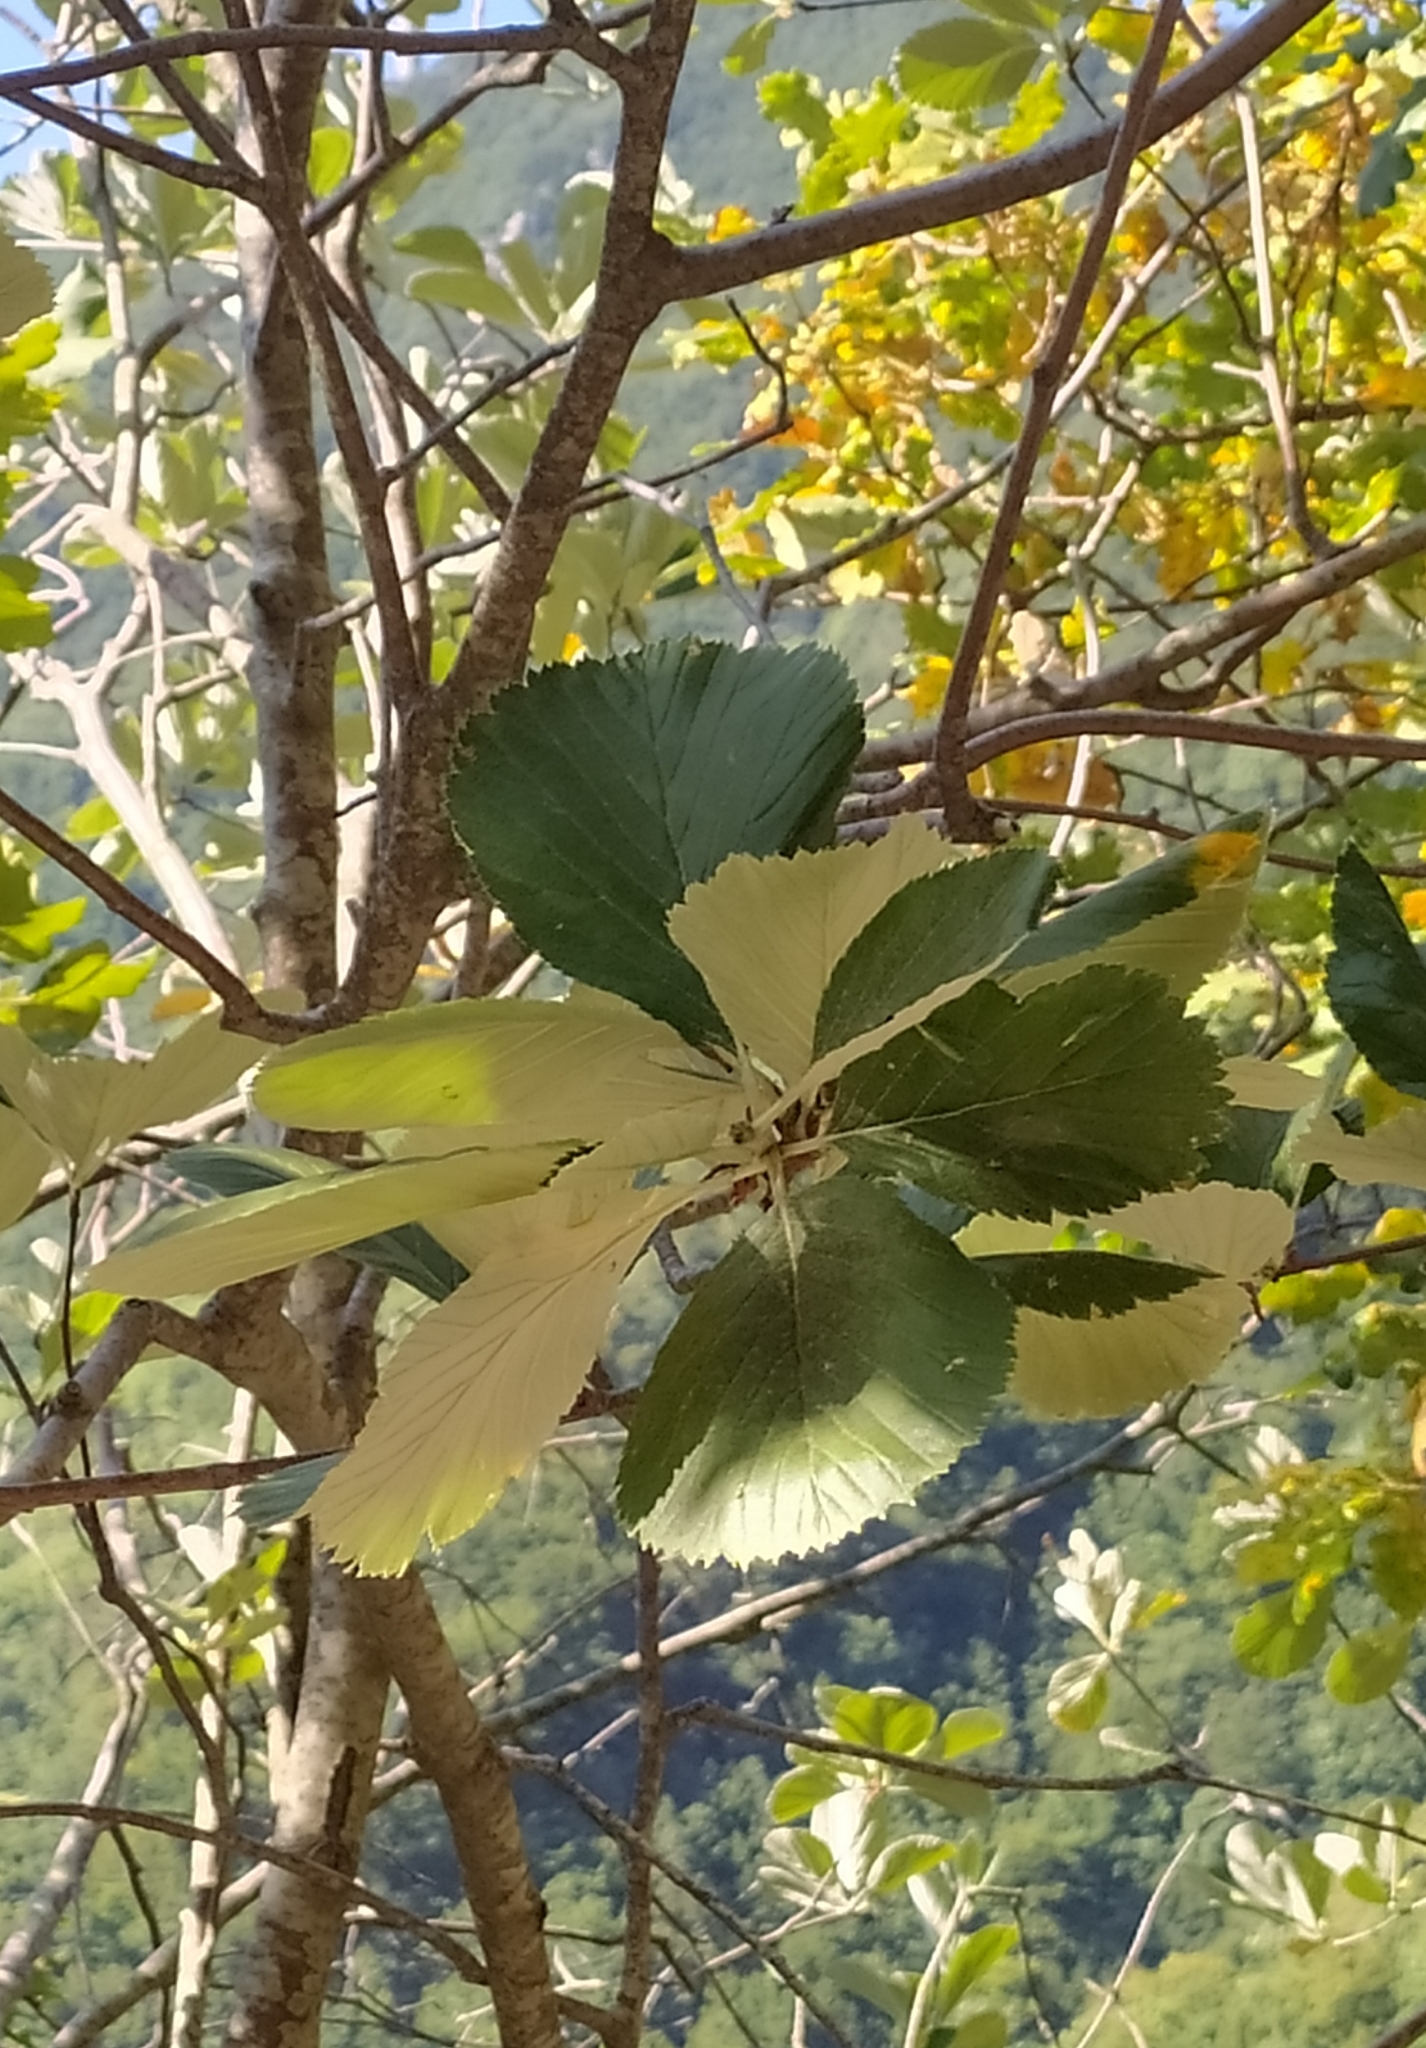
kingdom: Plantae
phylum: Tracheophyta
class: Magnoliopsida
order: Rosales
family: Rosaceae
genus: Aria
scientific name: Aria edulis
